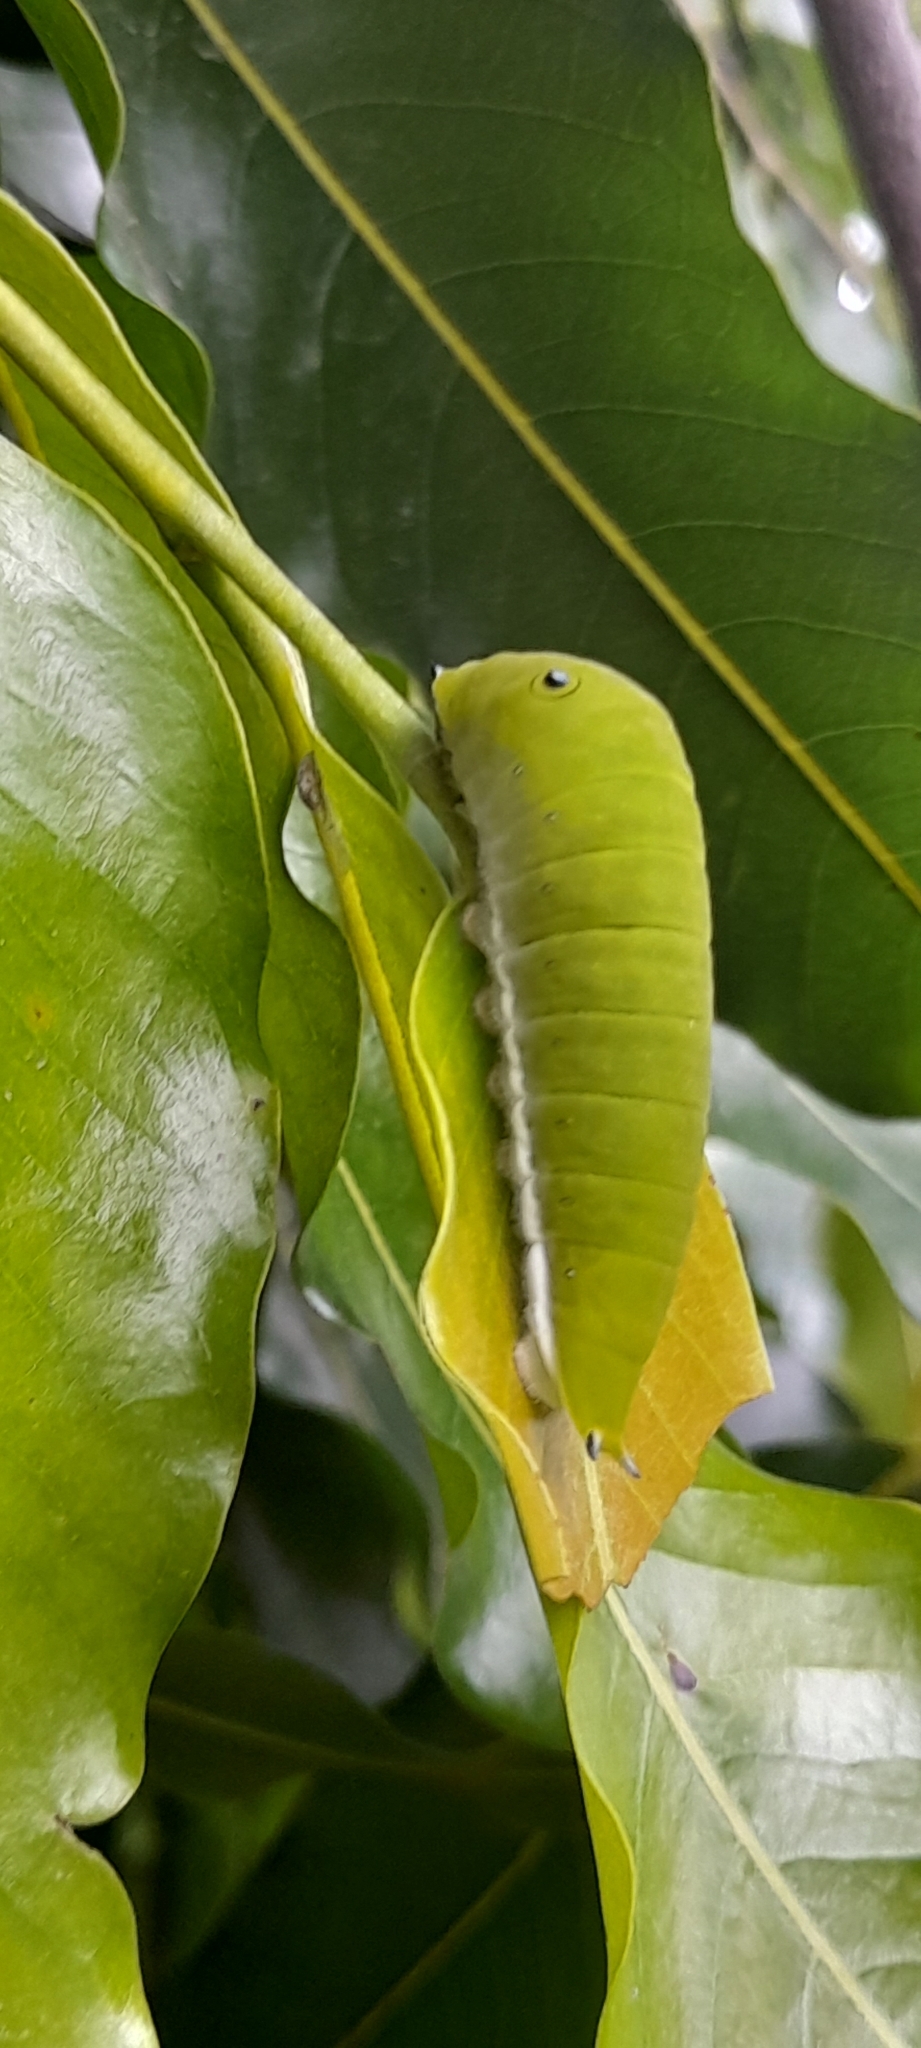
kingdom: Animalia
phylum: Arthropoda
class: Insecta
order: Lepidoptera
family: Papilionidae
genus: Graphium
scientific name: Graphium doson
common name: Common jay
